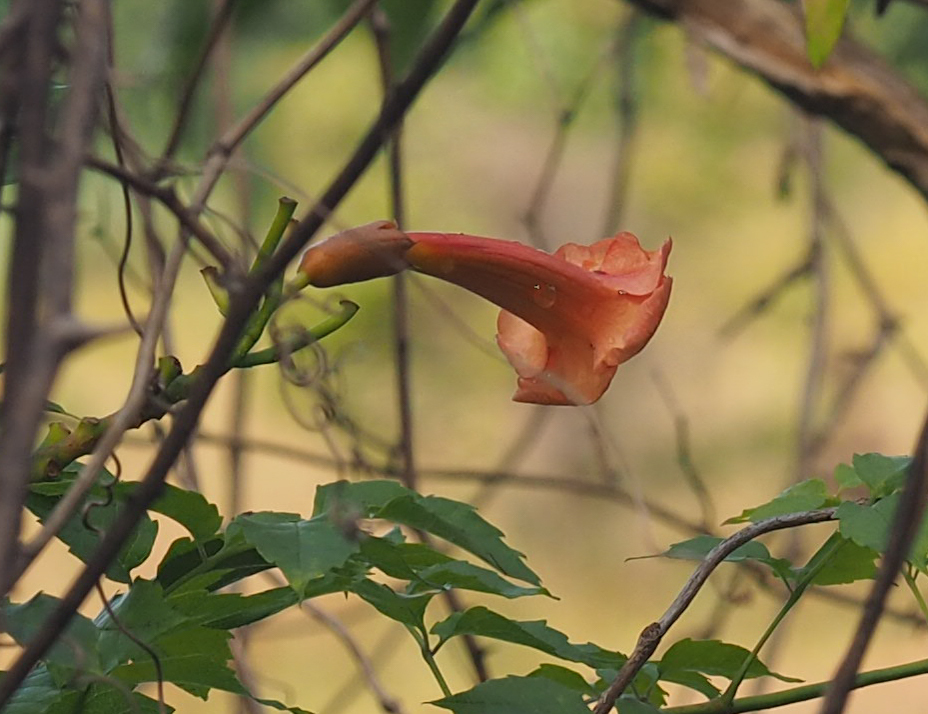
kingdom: Plantae
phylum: Tracheophyta
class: Magnoliopsida
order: Lamiales
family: Bignoniaceae
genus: Campsis
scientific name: Campsis radicans
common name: Trumpet-creeper
